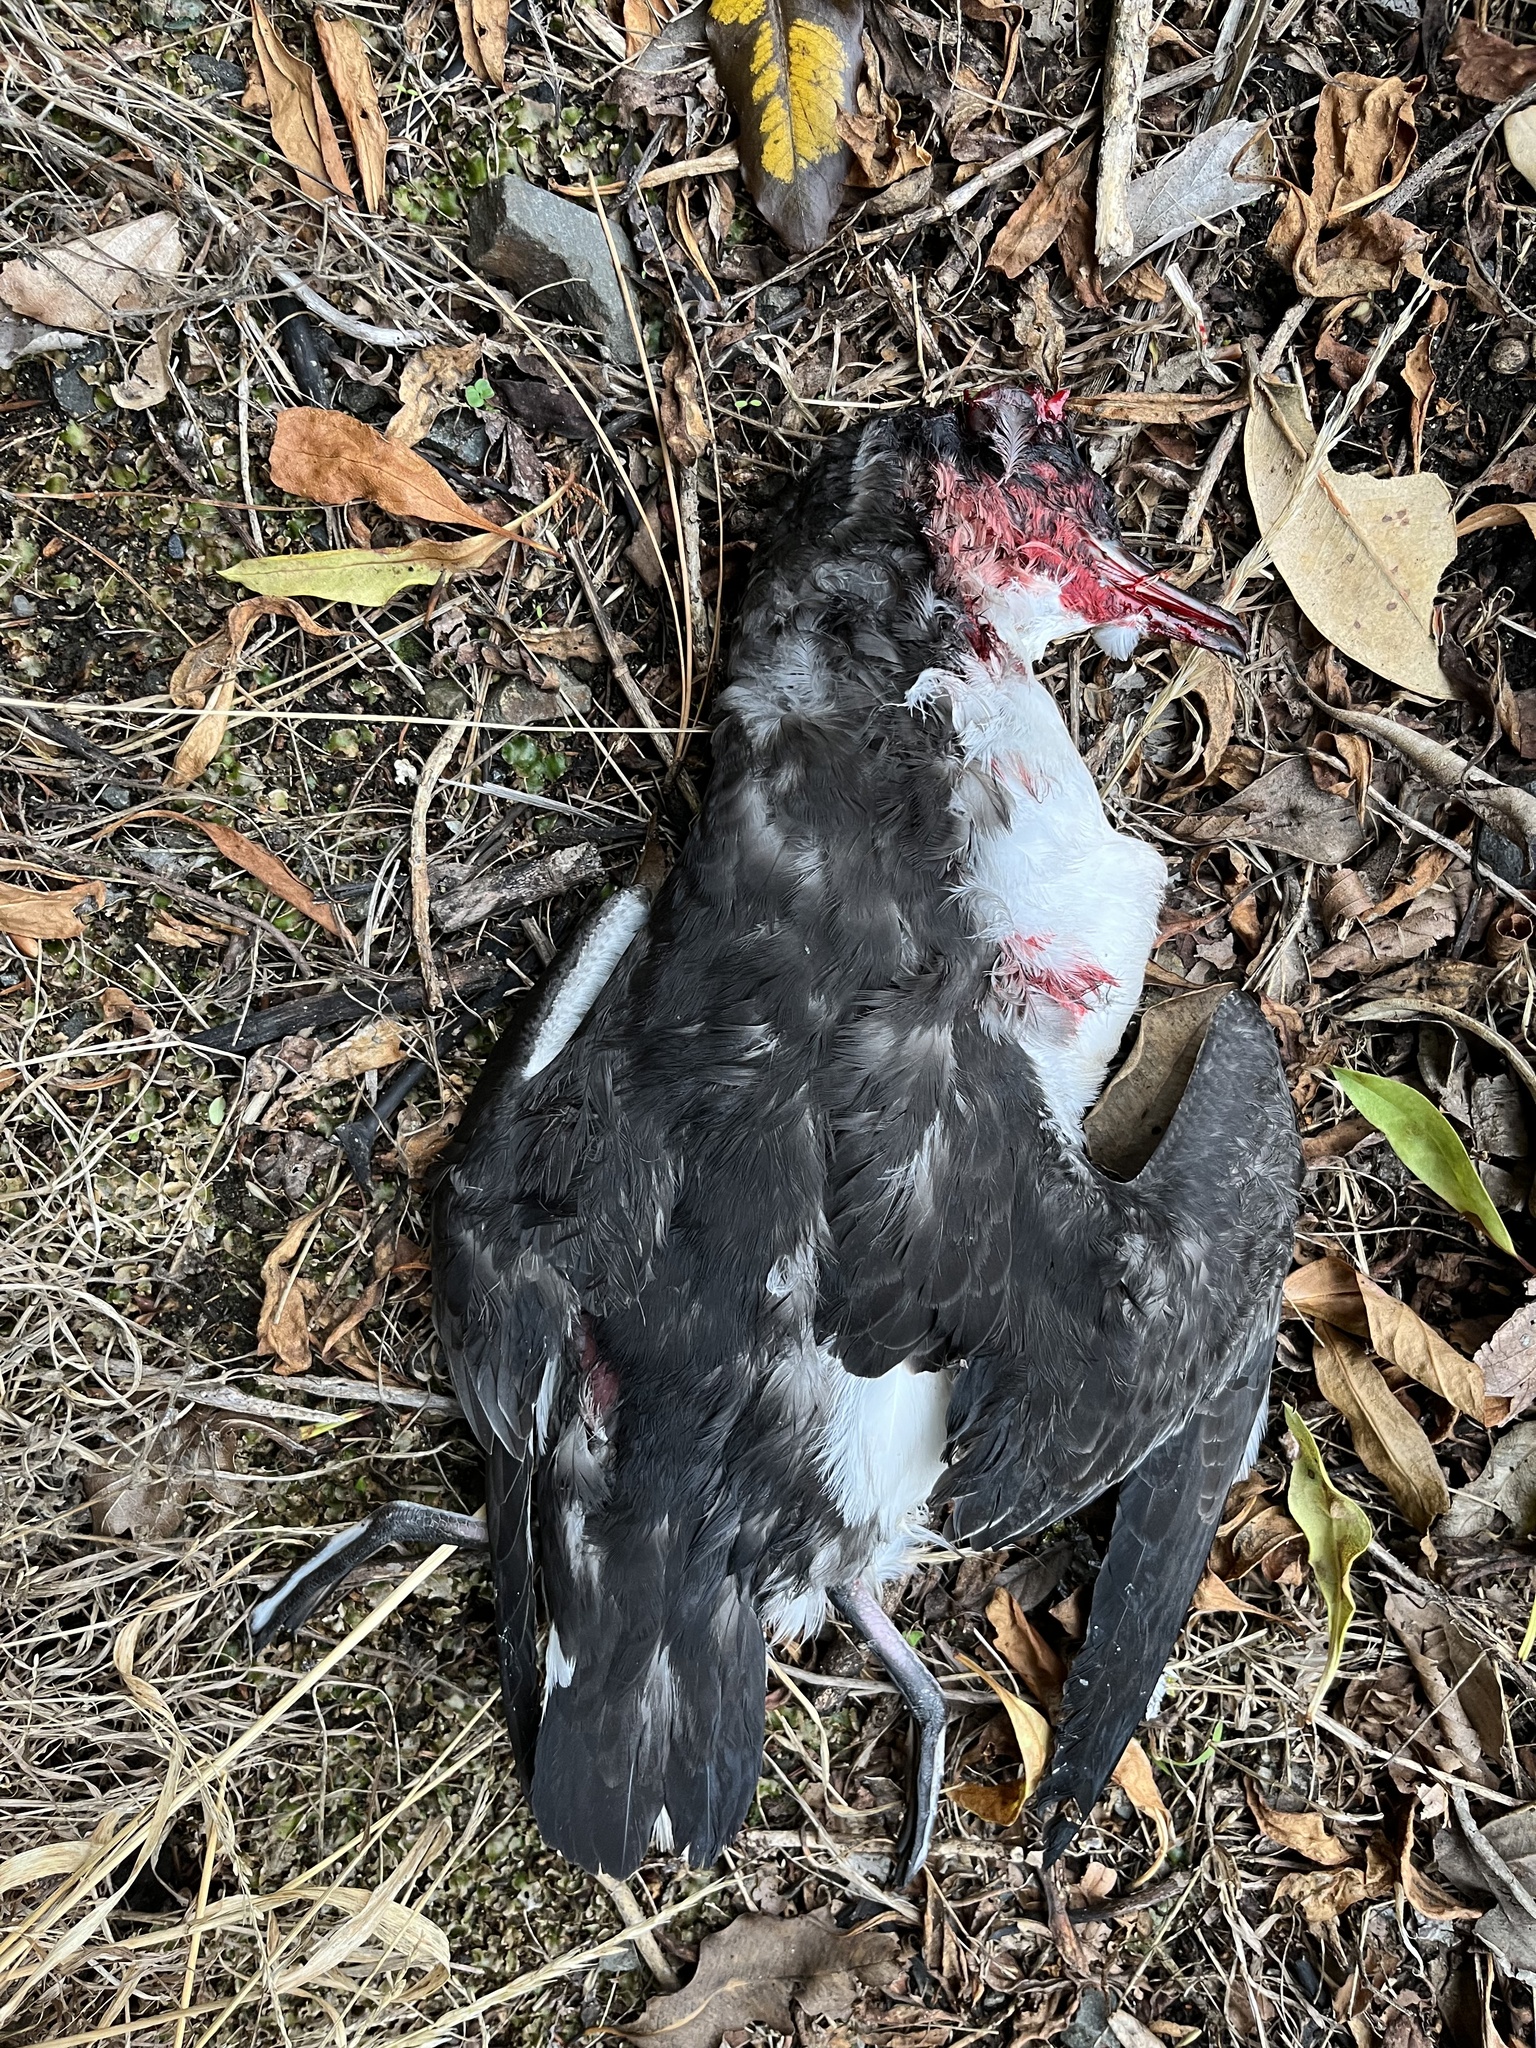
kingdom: Animalia
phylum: Chordata
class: Aves
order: Procellariiformes
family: Procellariidae
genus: Puffinus
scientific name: Puffinus gavia
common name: Fluttering shearwater
